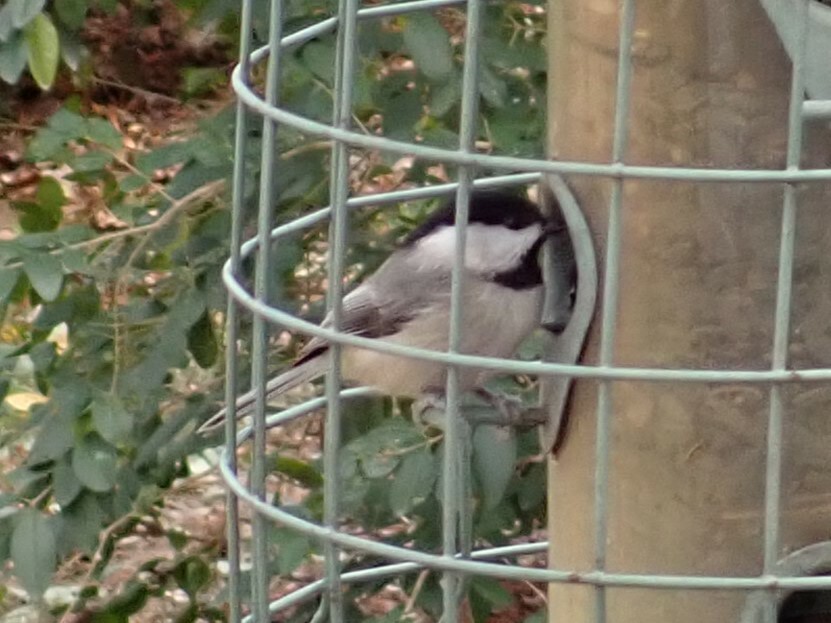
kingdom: Animalia
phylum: Chordata
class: Aves
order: Passeriformes
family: Paridae
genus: Poecile
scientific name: Poecile carolinensis
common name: Carolina chickadee
